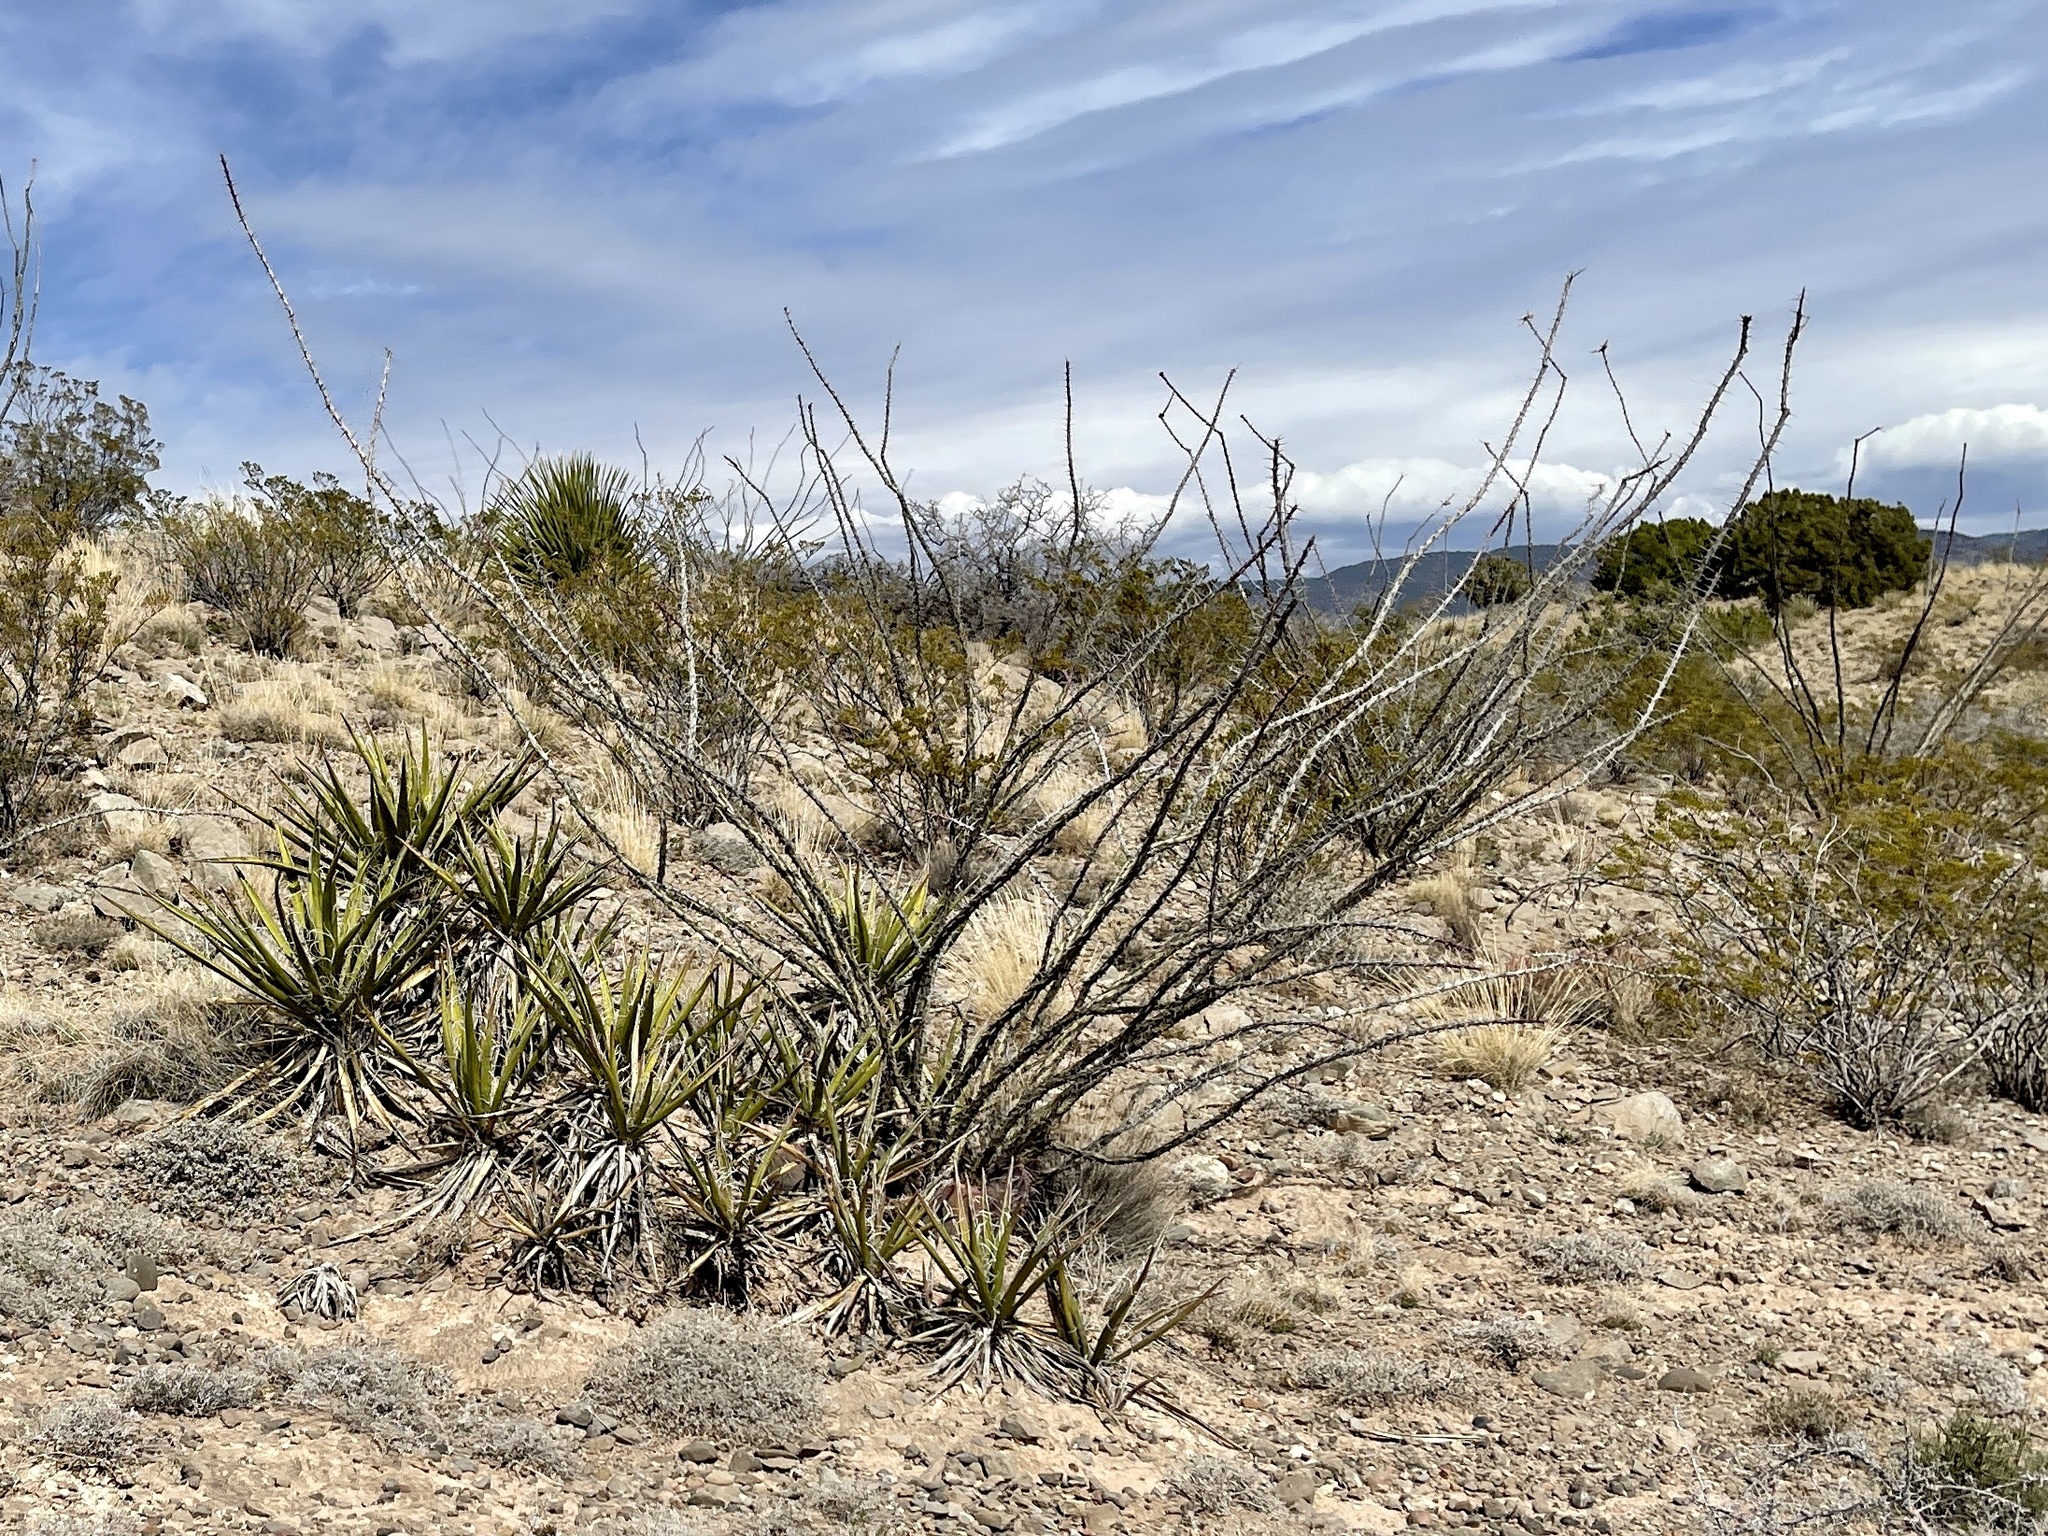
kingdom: Plantae
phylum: Tracheophyta
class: Magnoliopsida
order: Ericales
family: Fouquieriaceae
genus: Fouquieria
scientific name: Fouquieria splendens
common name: Vine-cactus
